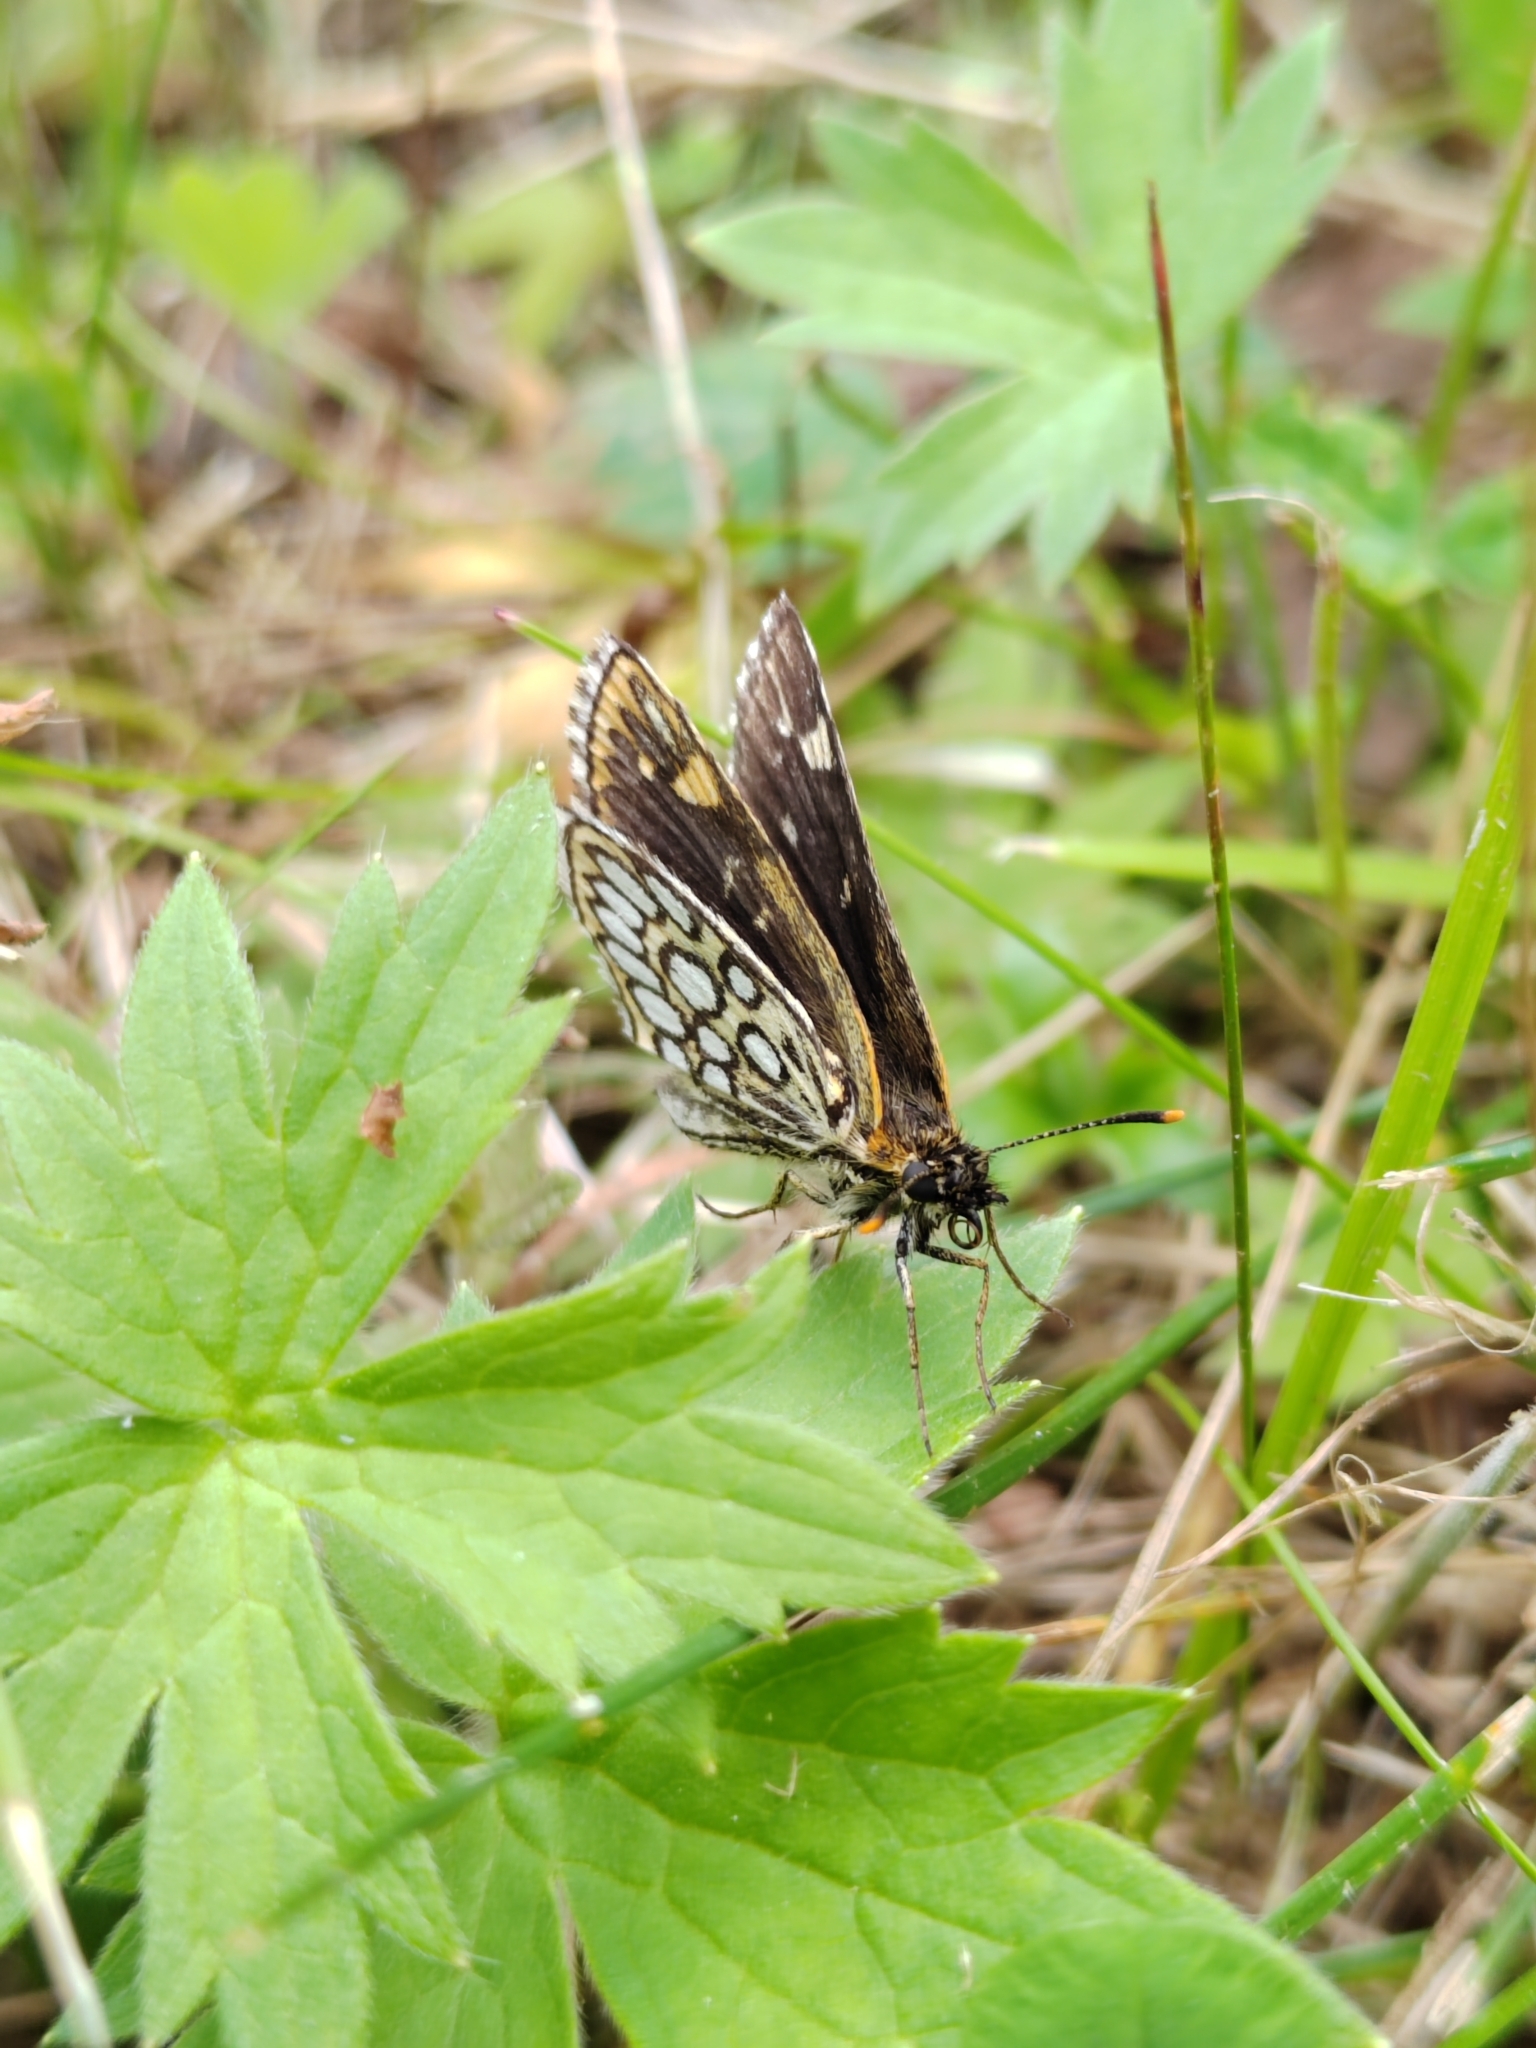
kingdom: Animalia
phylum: Arthropoda
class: Insecta
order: Lepidoptera
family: Hesperiidae
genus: Heteropterus
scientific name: Heteropterus morpheus
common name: Large chequered skipper
